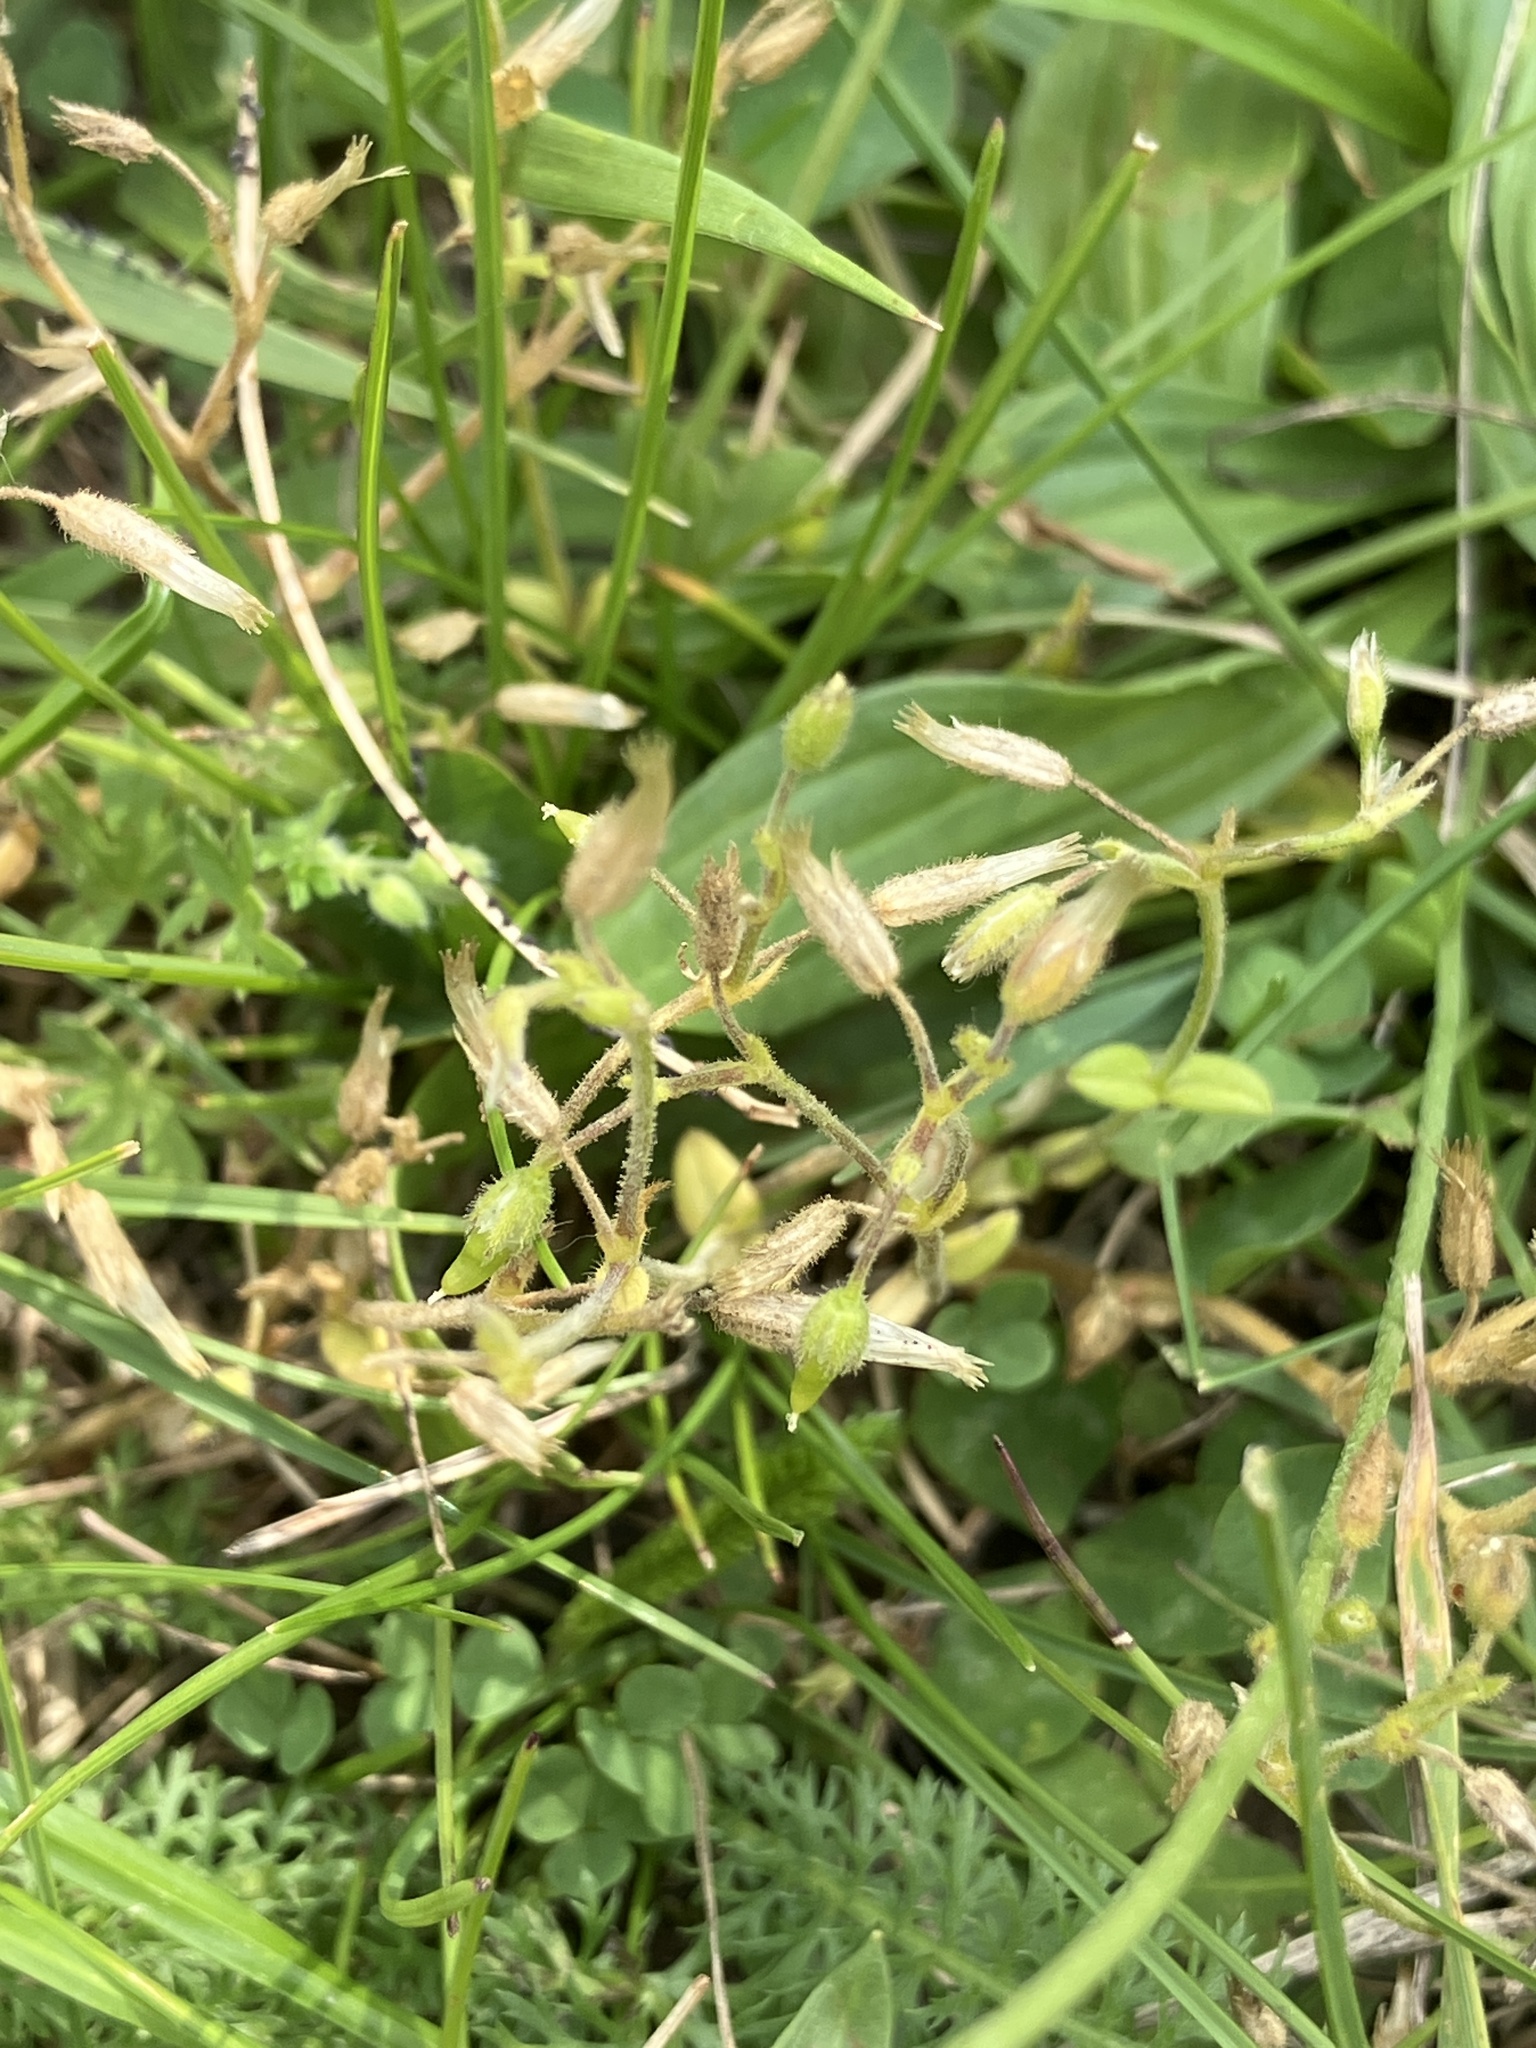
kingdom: Plantae
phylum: Tracheophyta
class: Magnoliopsida
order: Caryophyllales
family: Caryophyllaceae
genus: Cerastium
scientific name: Cerastium pumilum
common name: Dwarf mouse-ear
